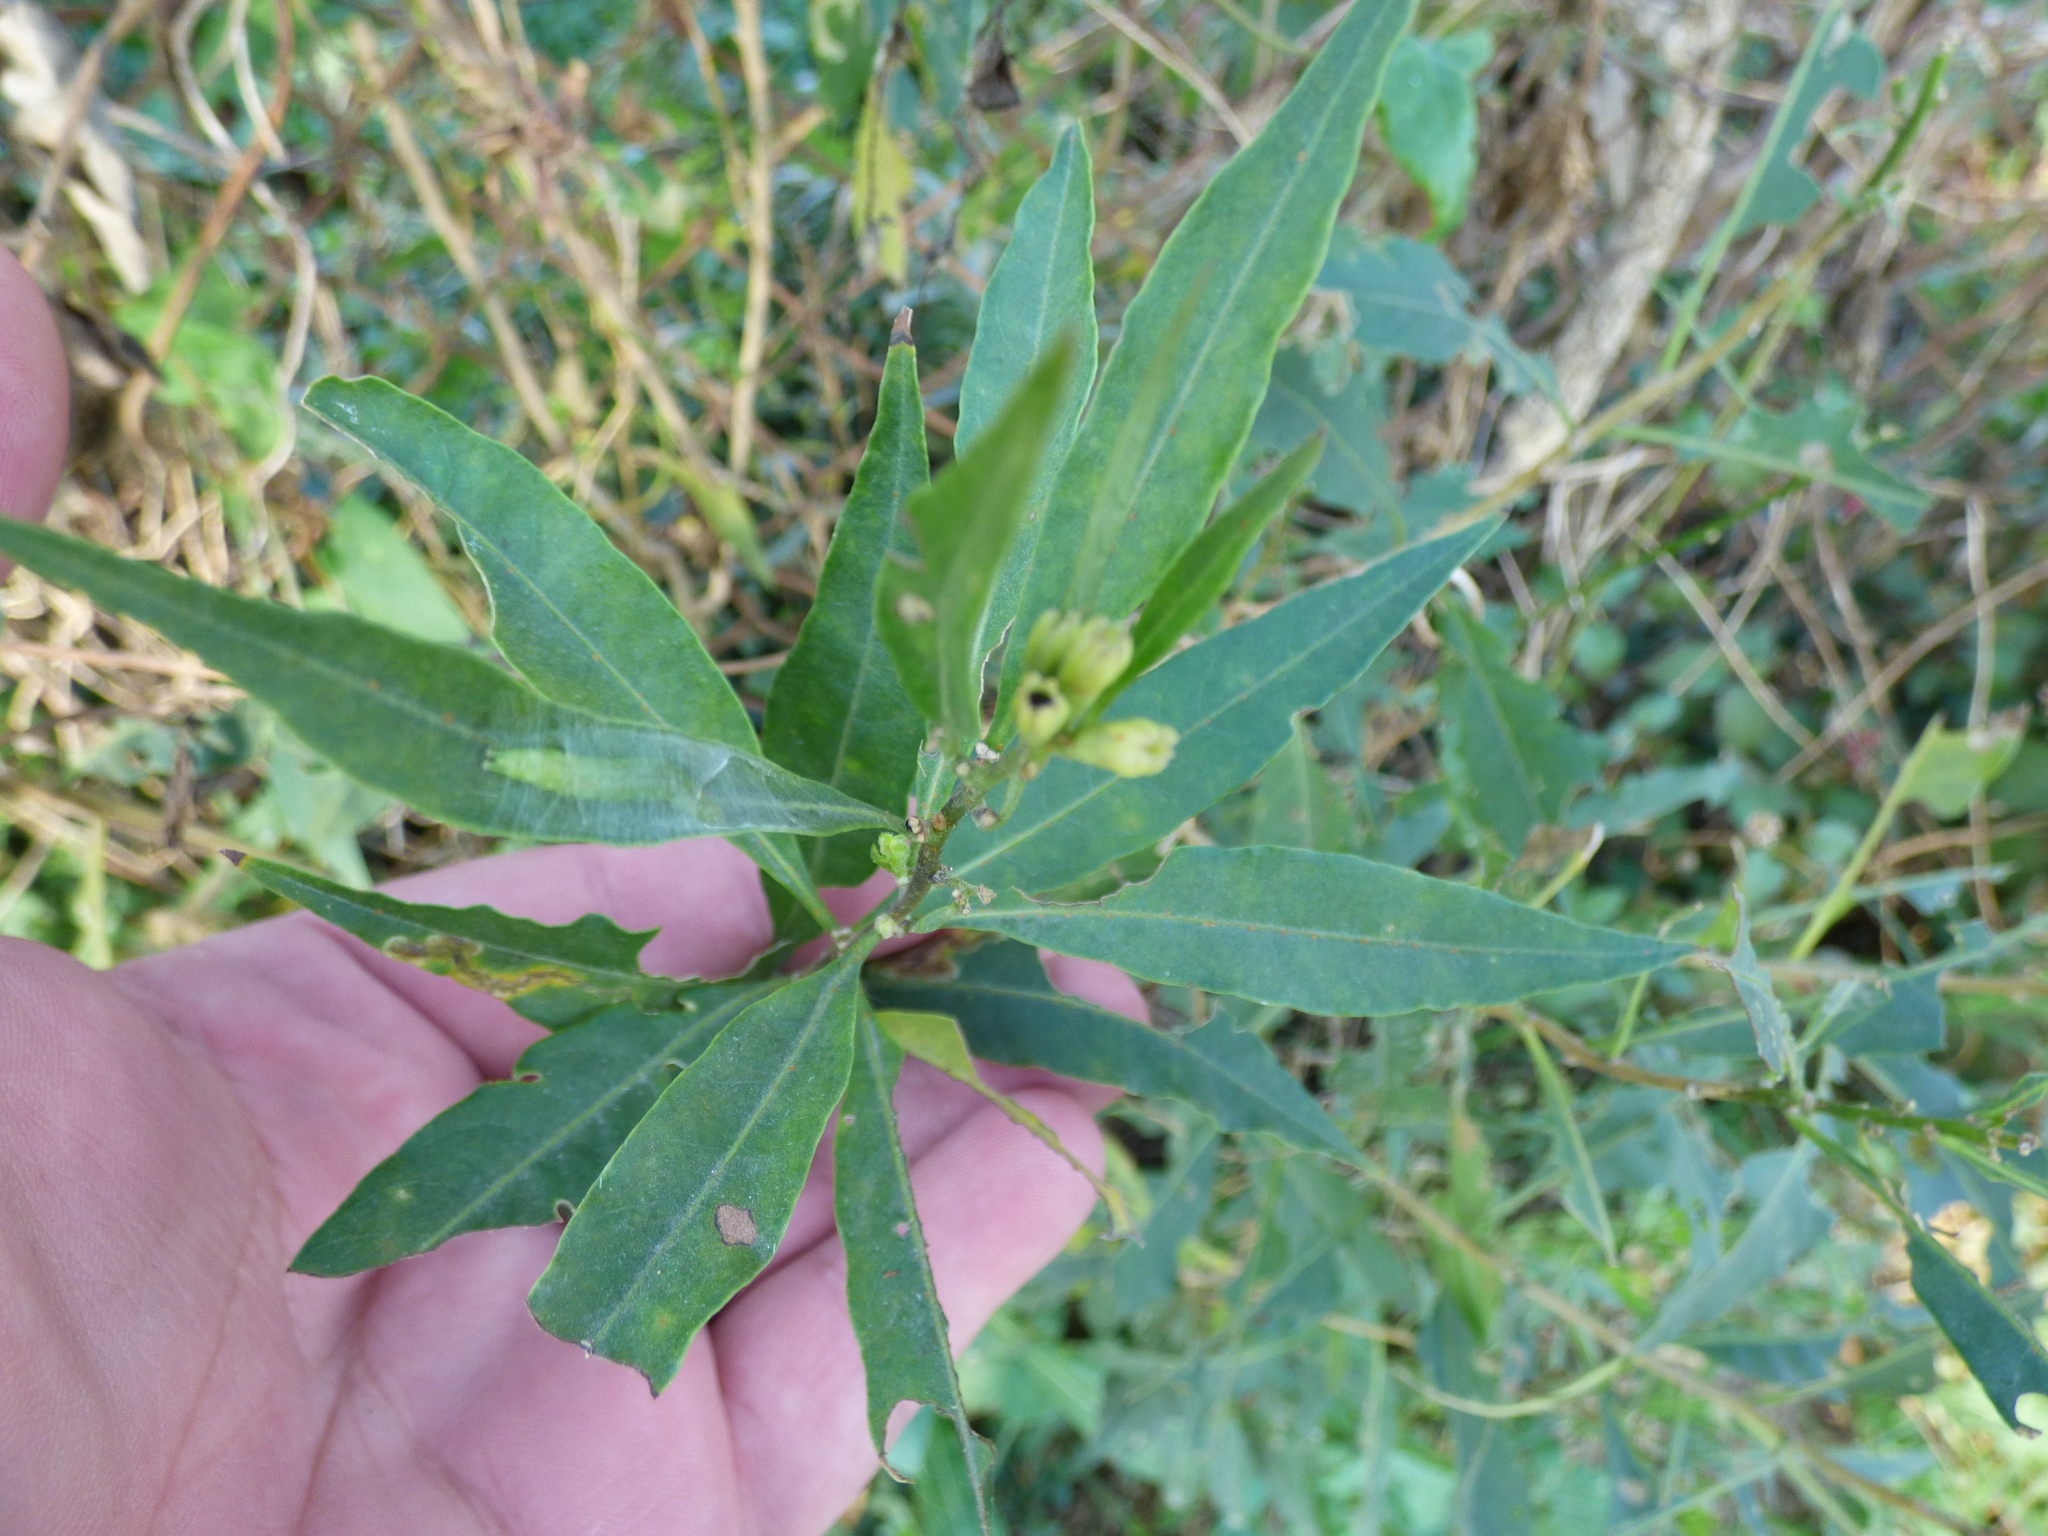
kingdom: Plantae
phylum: Tracheophyta
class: Magnoliopsida
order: Solanales
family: Solanaceae
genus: Cestrum
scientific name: Cestrum parqui
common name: Chilean cestrum
